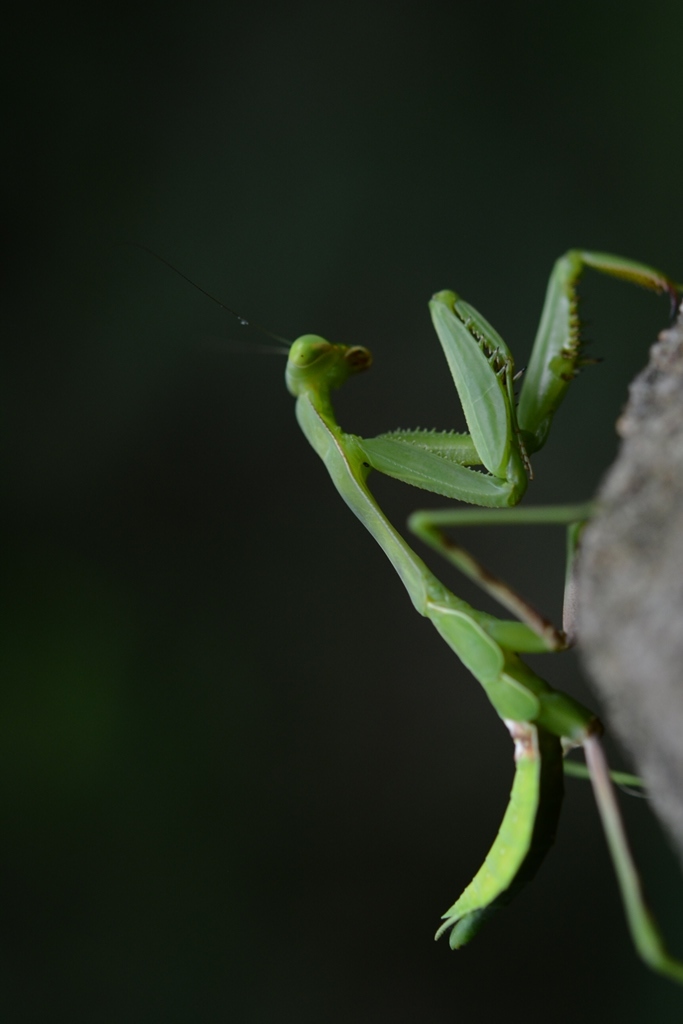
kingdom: Animalia
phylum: Arthropoda
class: Insecta
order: Mantodea
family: Mantidae
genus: Stagmomantis
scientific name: Stagmomantis limbata
